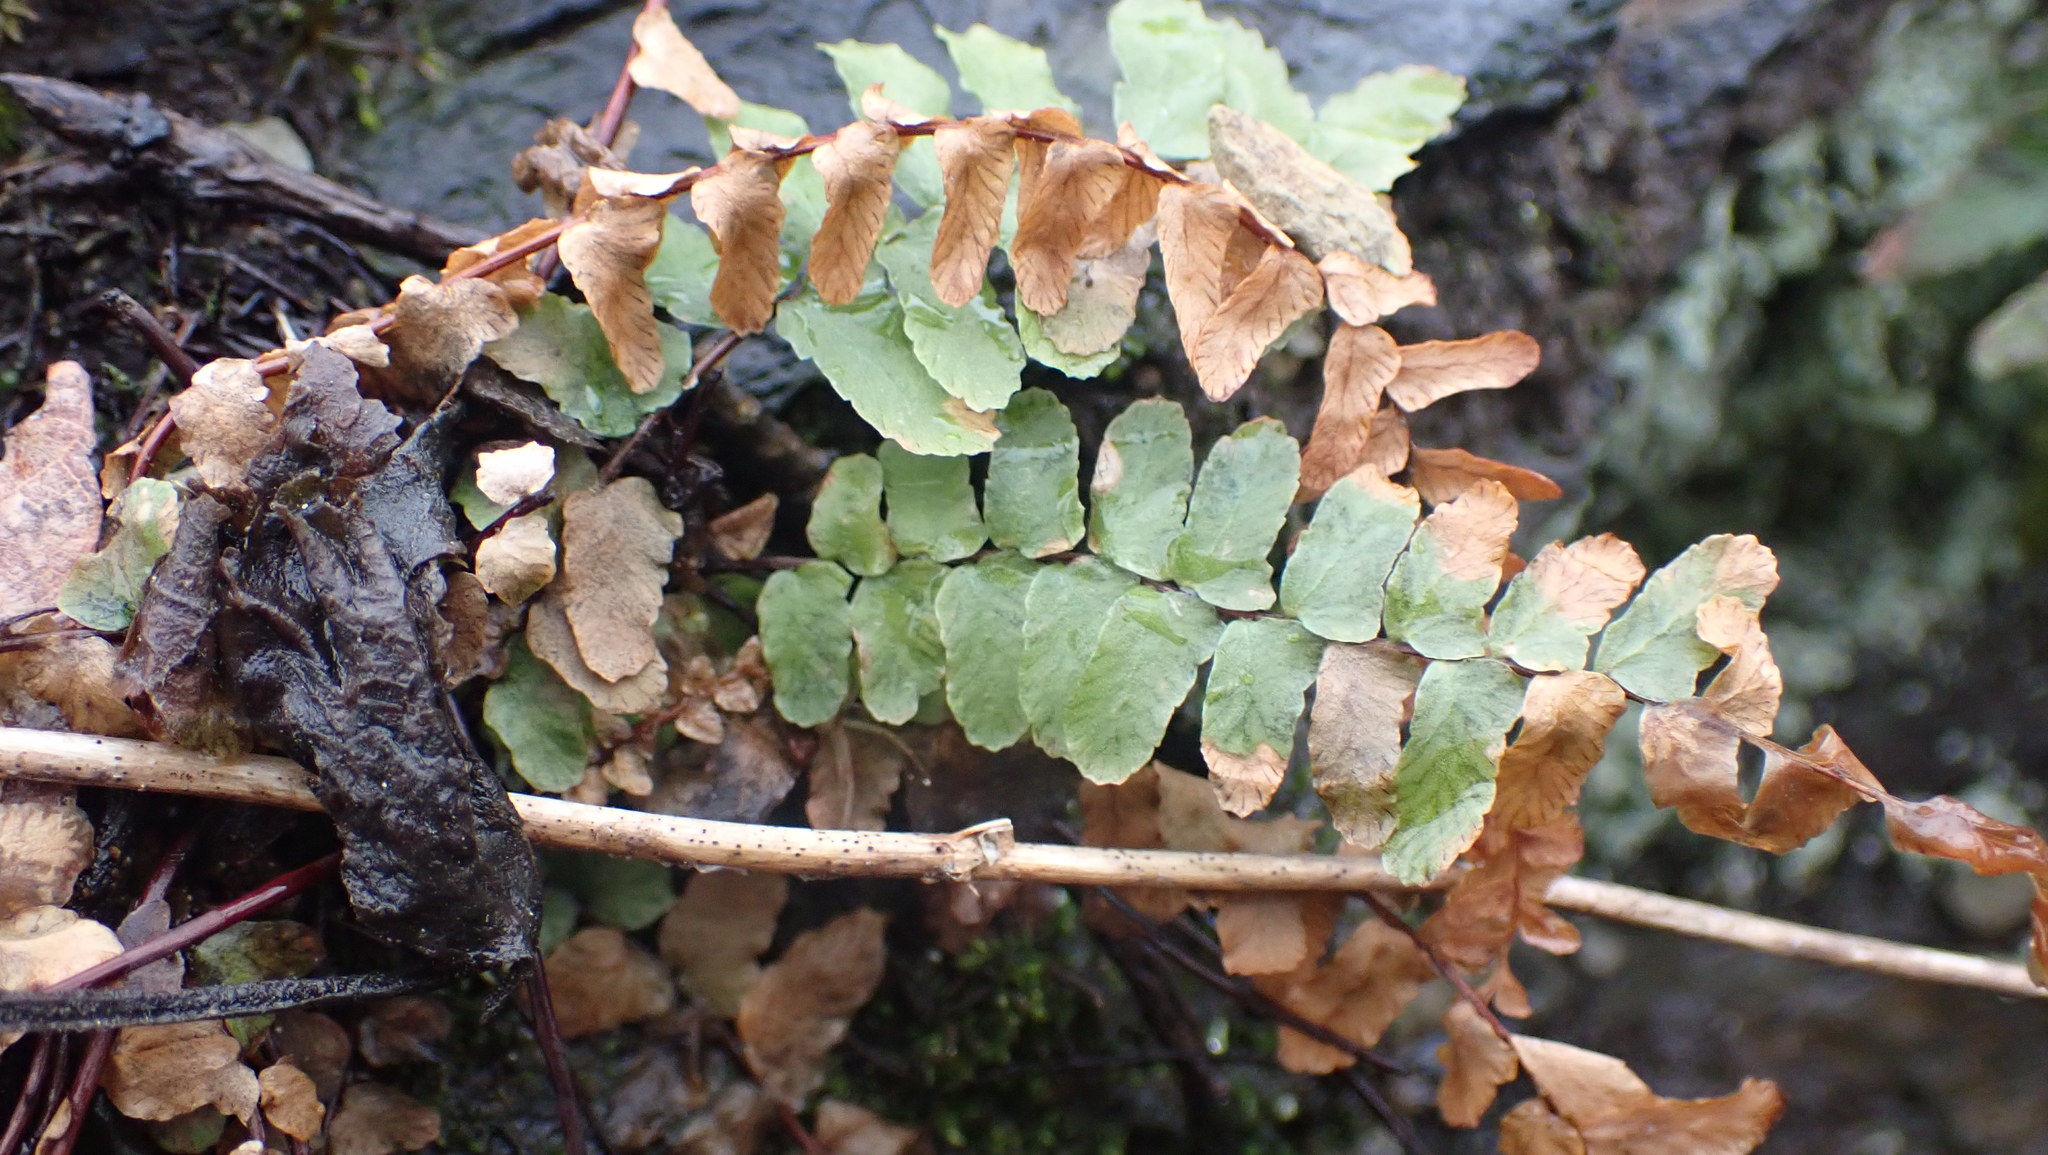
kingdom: Plantae
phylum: Tracheophyta
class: Polypodiopsida
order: Polypodiales
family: Aspleniaceae
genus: Asplenium
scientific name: Asplenium platyneuron
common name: Ebony spleenwort
